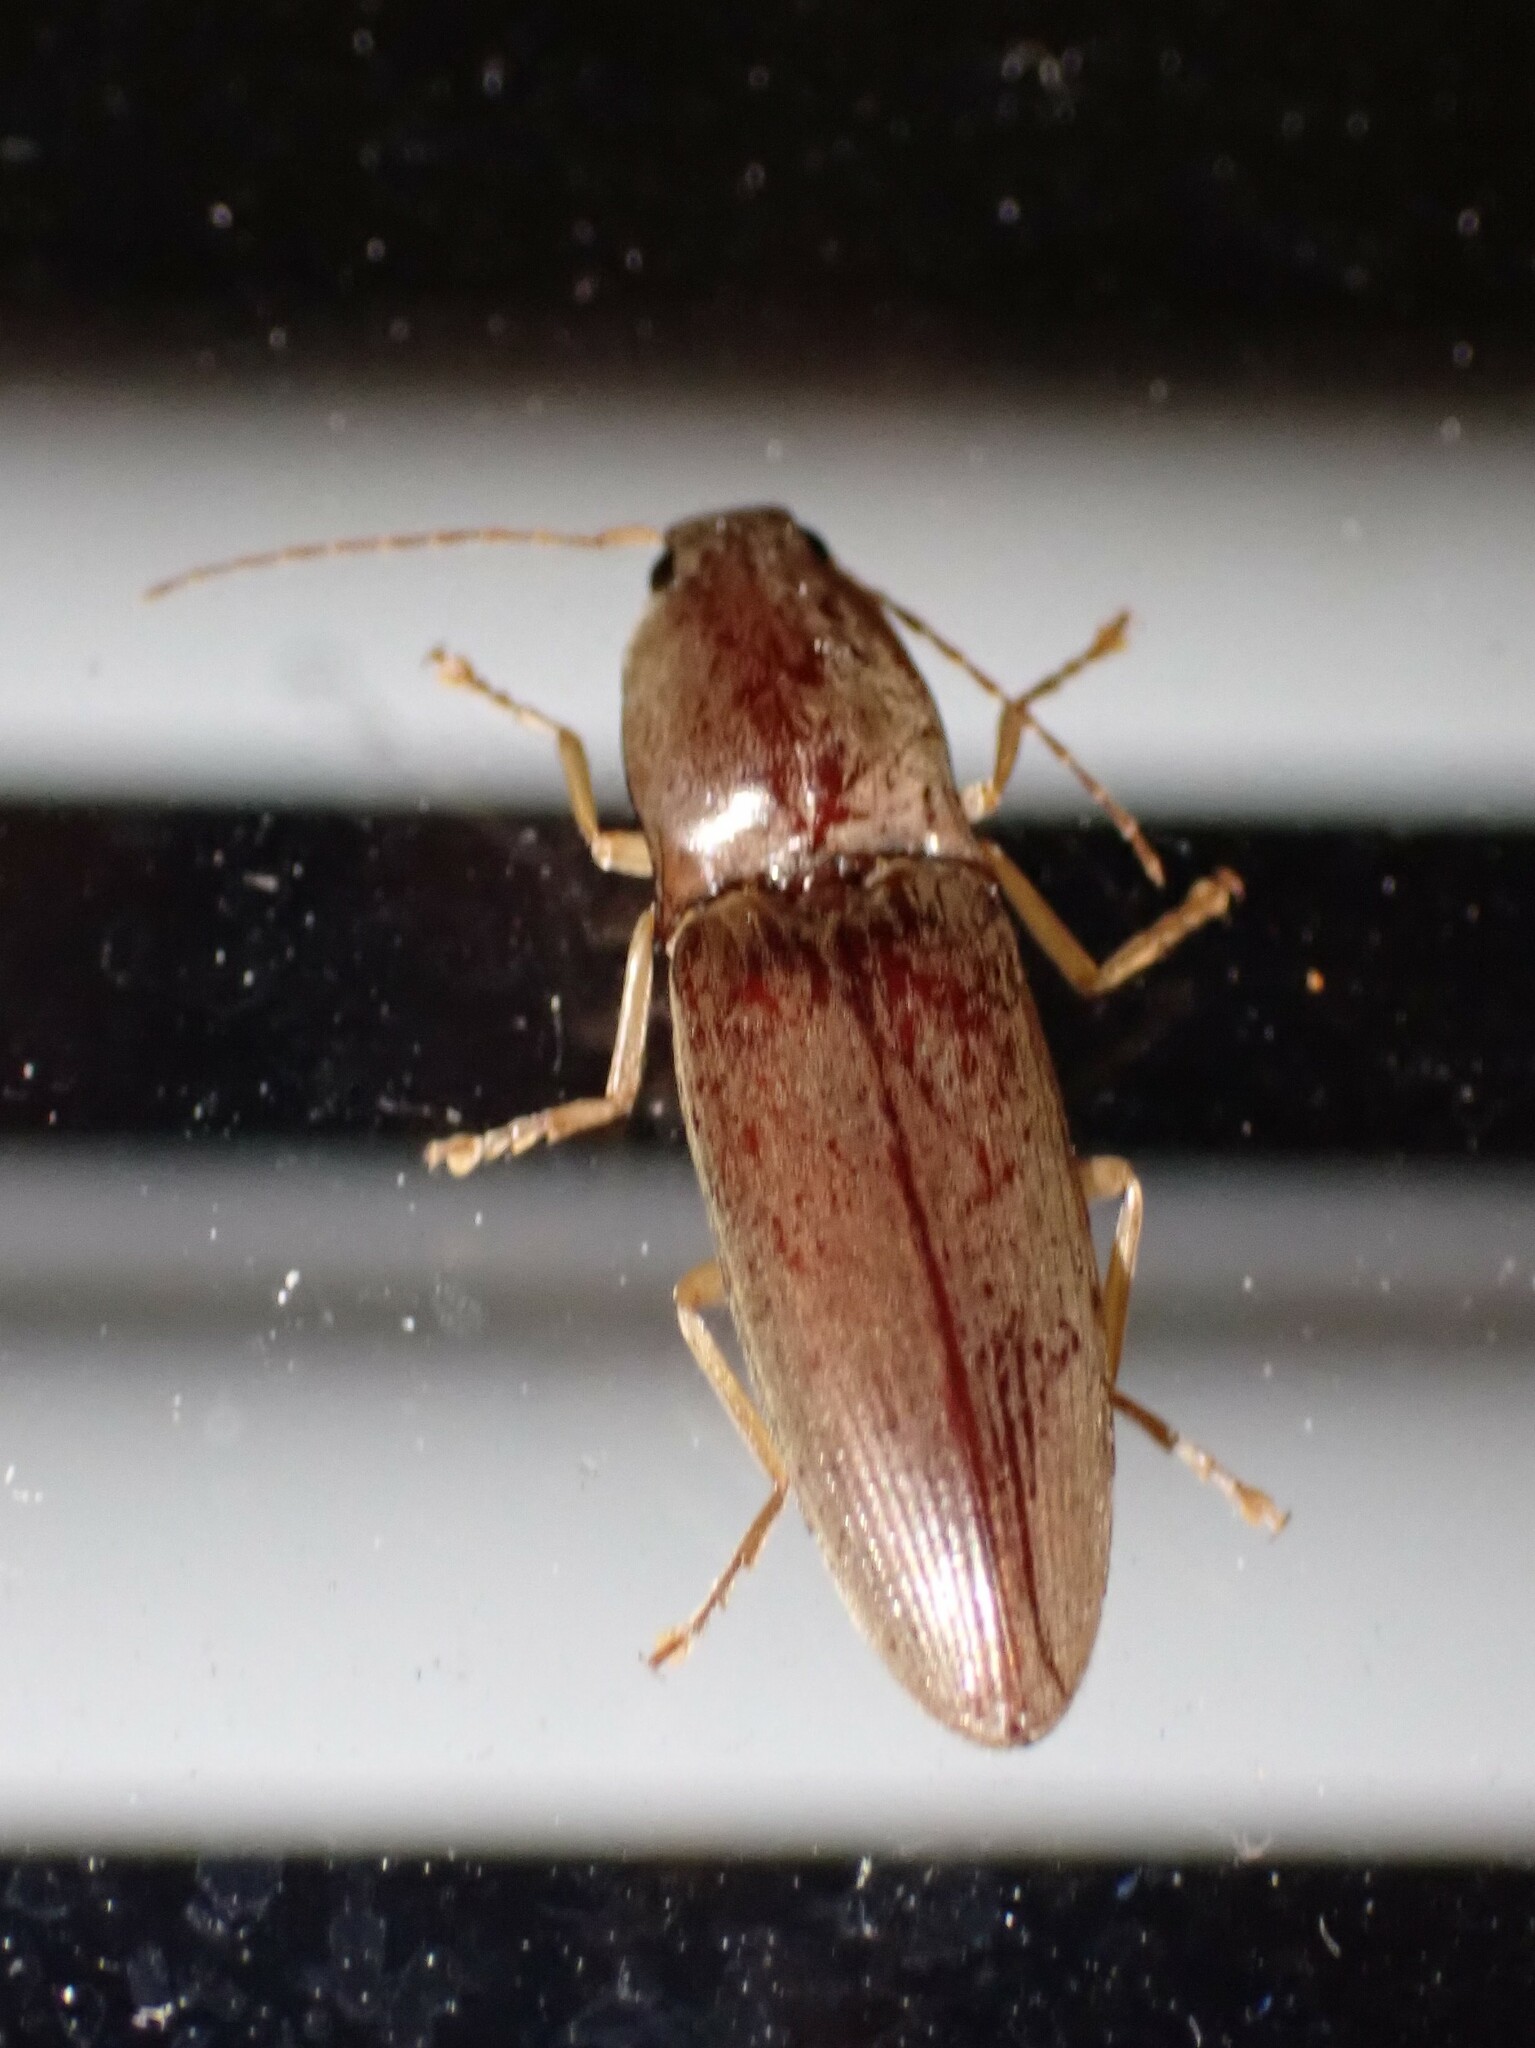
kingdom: Animalia
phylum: Arthropoda
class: Insecta
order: Coleoptera
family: Elateridae
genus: Monocrepidius
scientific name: Monocrepidius lividus
